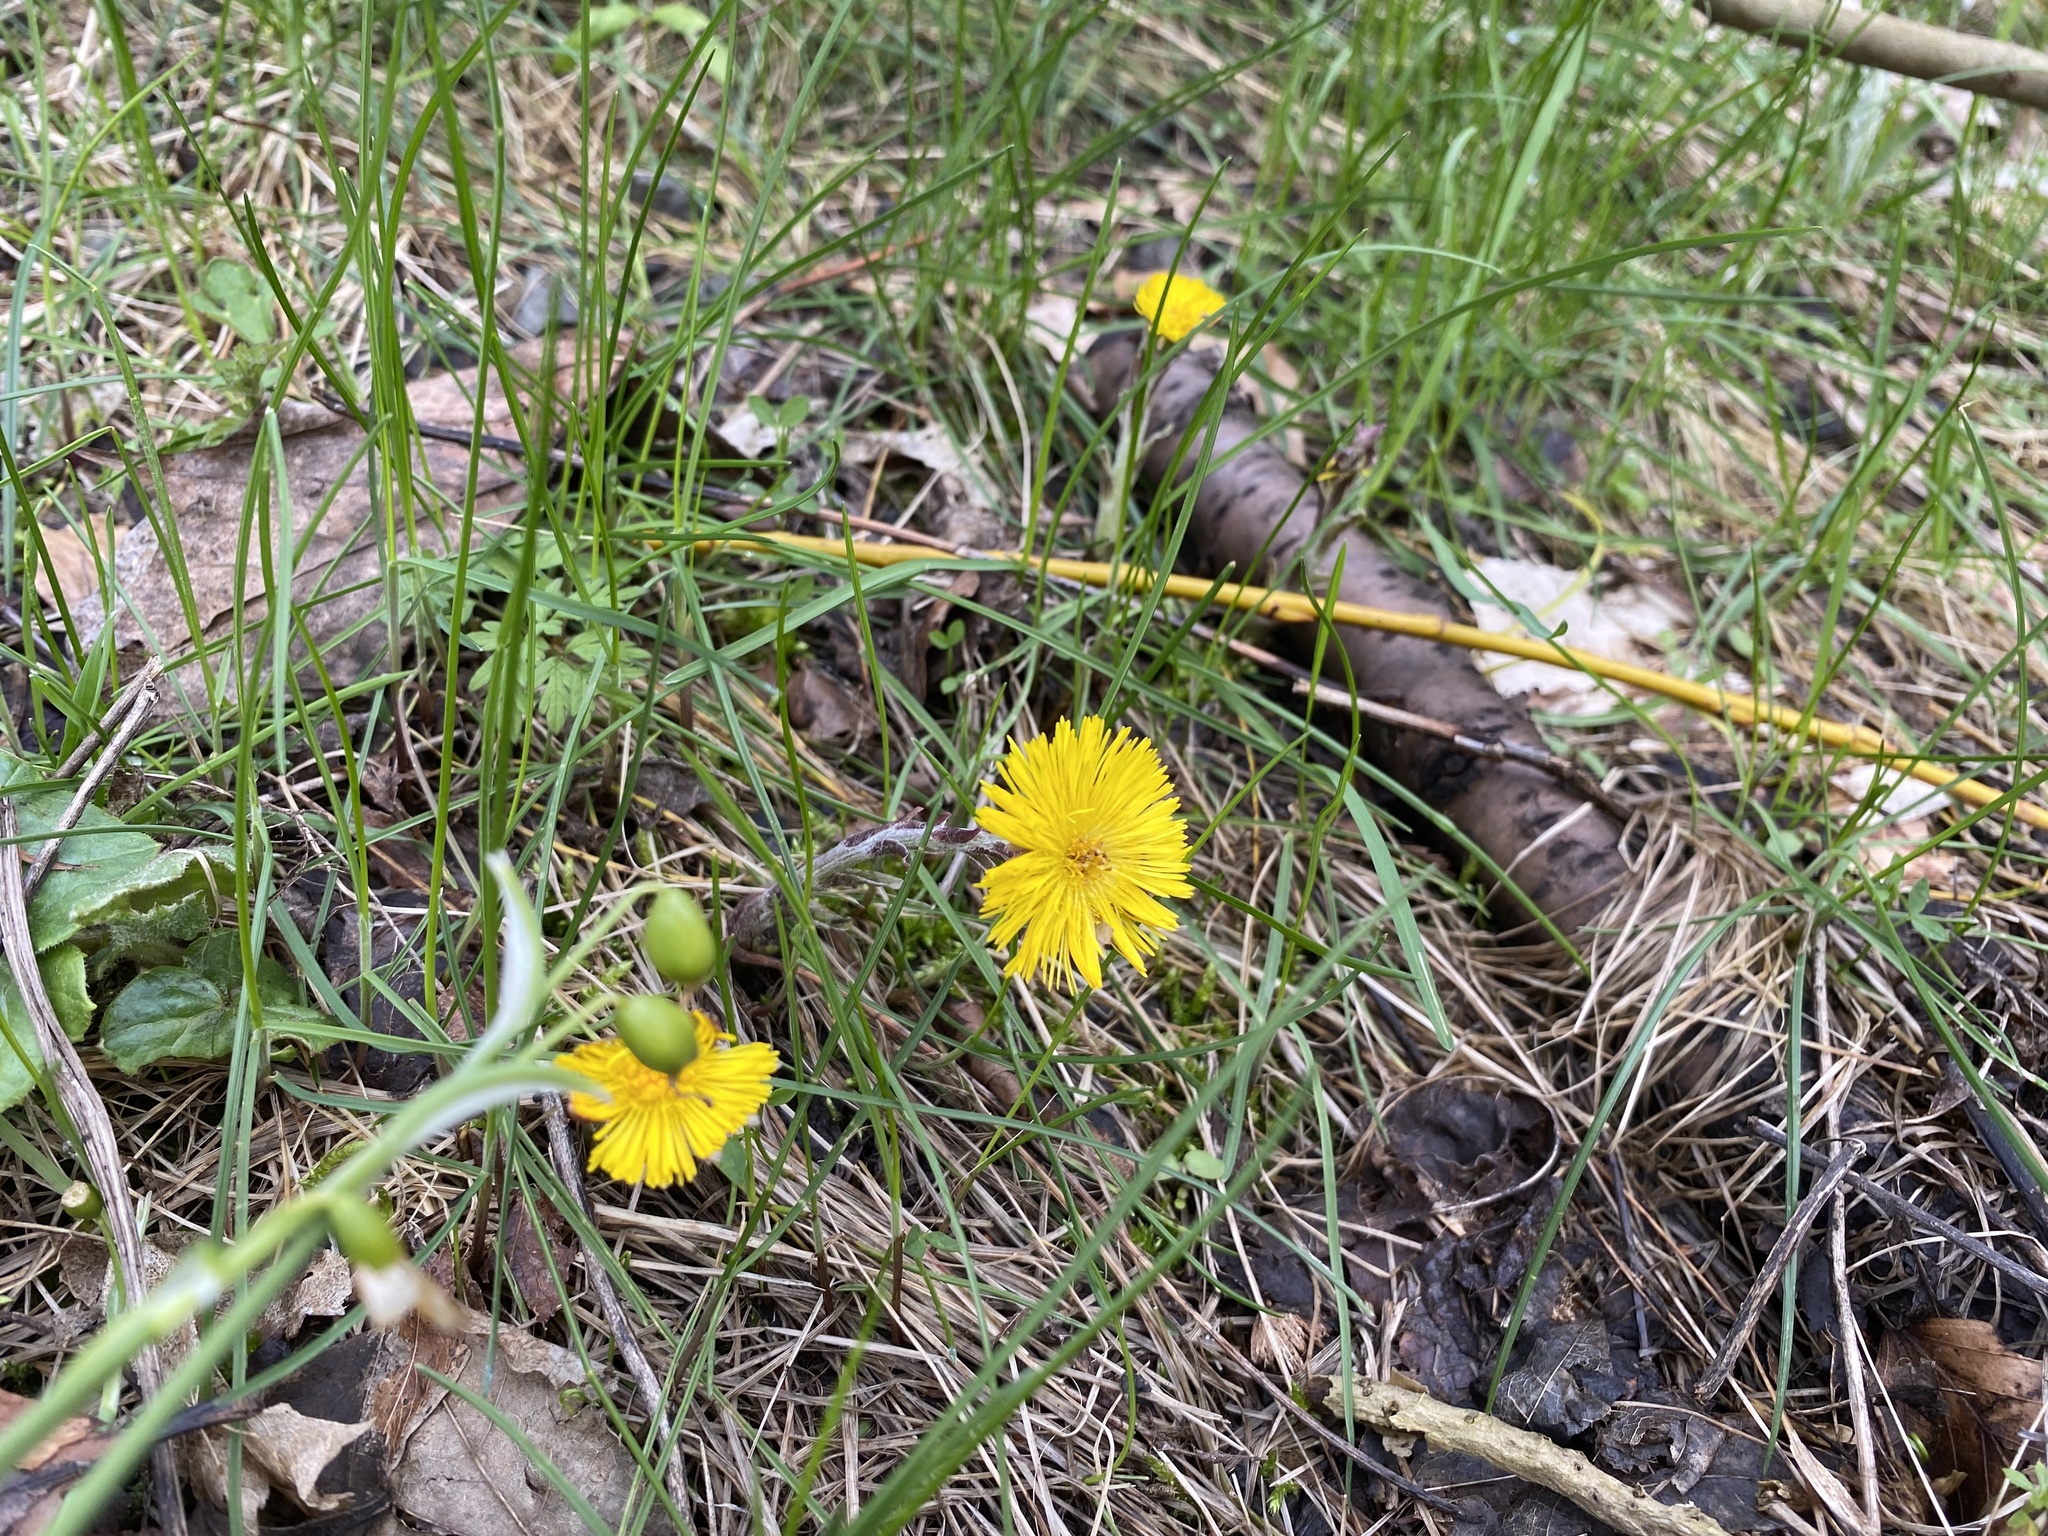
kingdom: Plantae
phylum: Tracheophyta
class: Magnoliopsida
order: Asterales
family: Asteraceae
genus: Tussilago
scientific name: Tussilago farfara
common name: Coltsfoot
